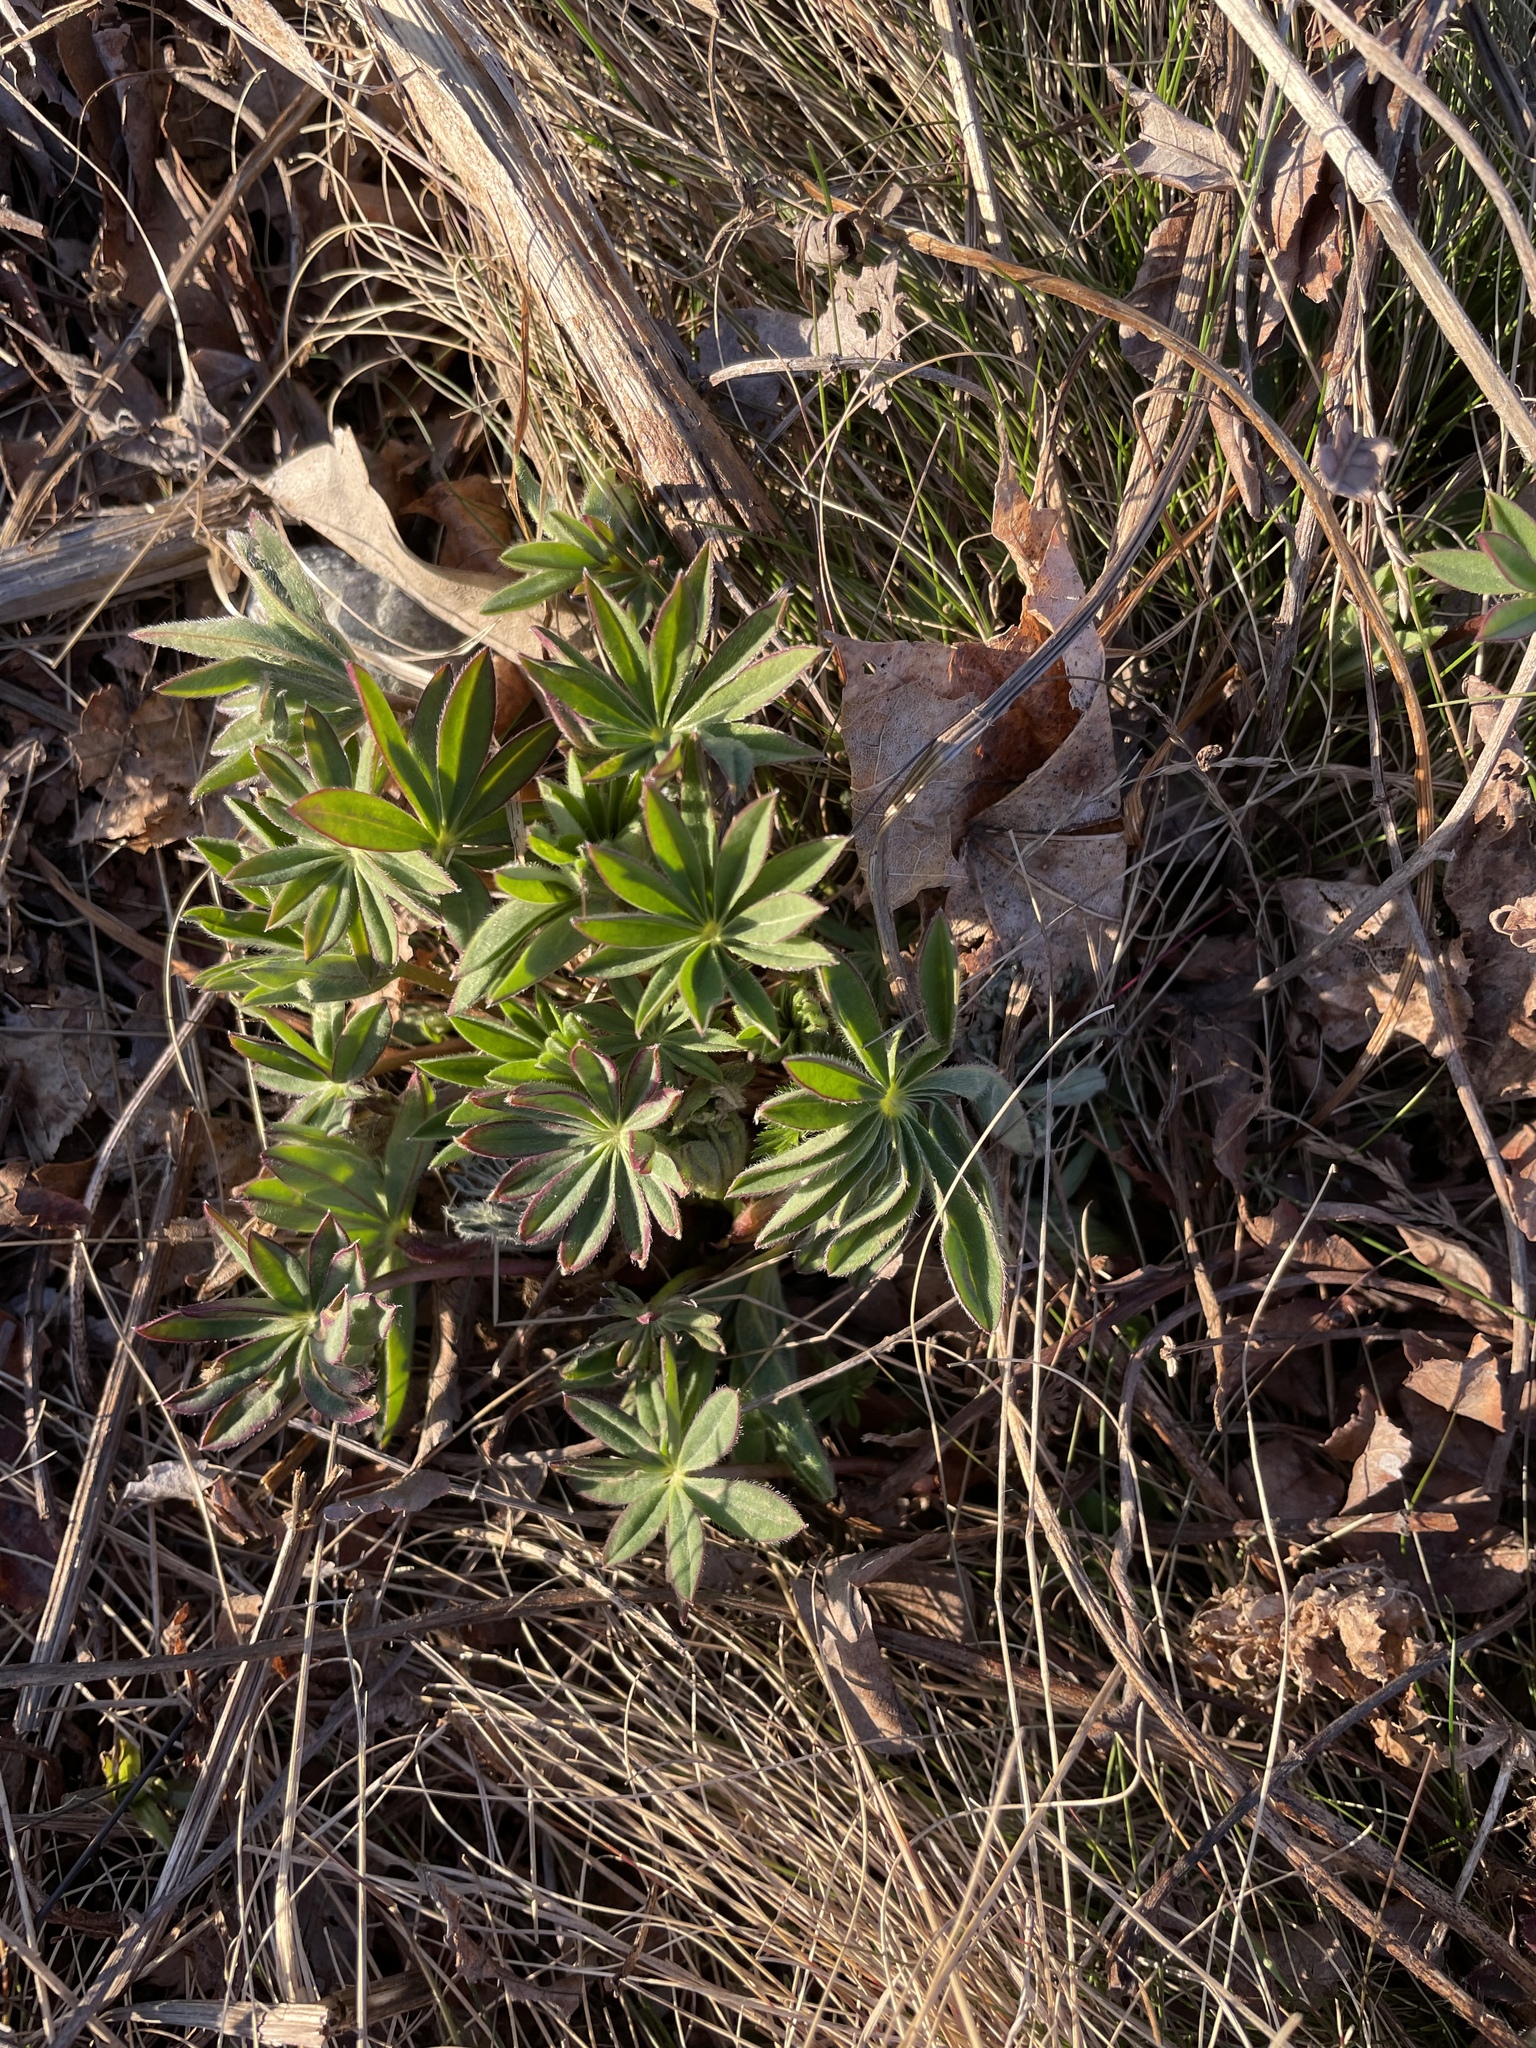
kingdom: Plantae
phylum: Tracheophyta
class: Magnoliopsida
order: Fabales
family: Fabaceae
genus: Lupinus
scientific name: Lupinus polyphyllus
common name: Garden lupin
